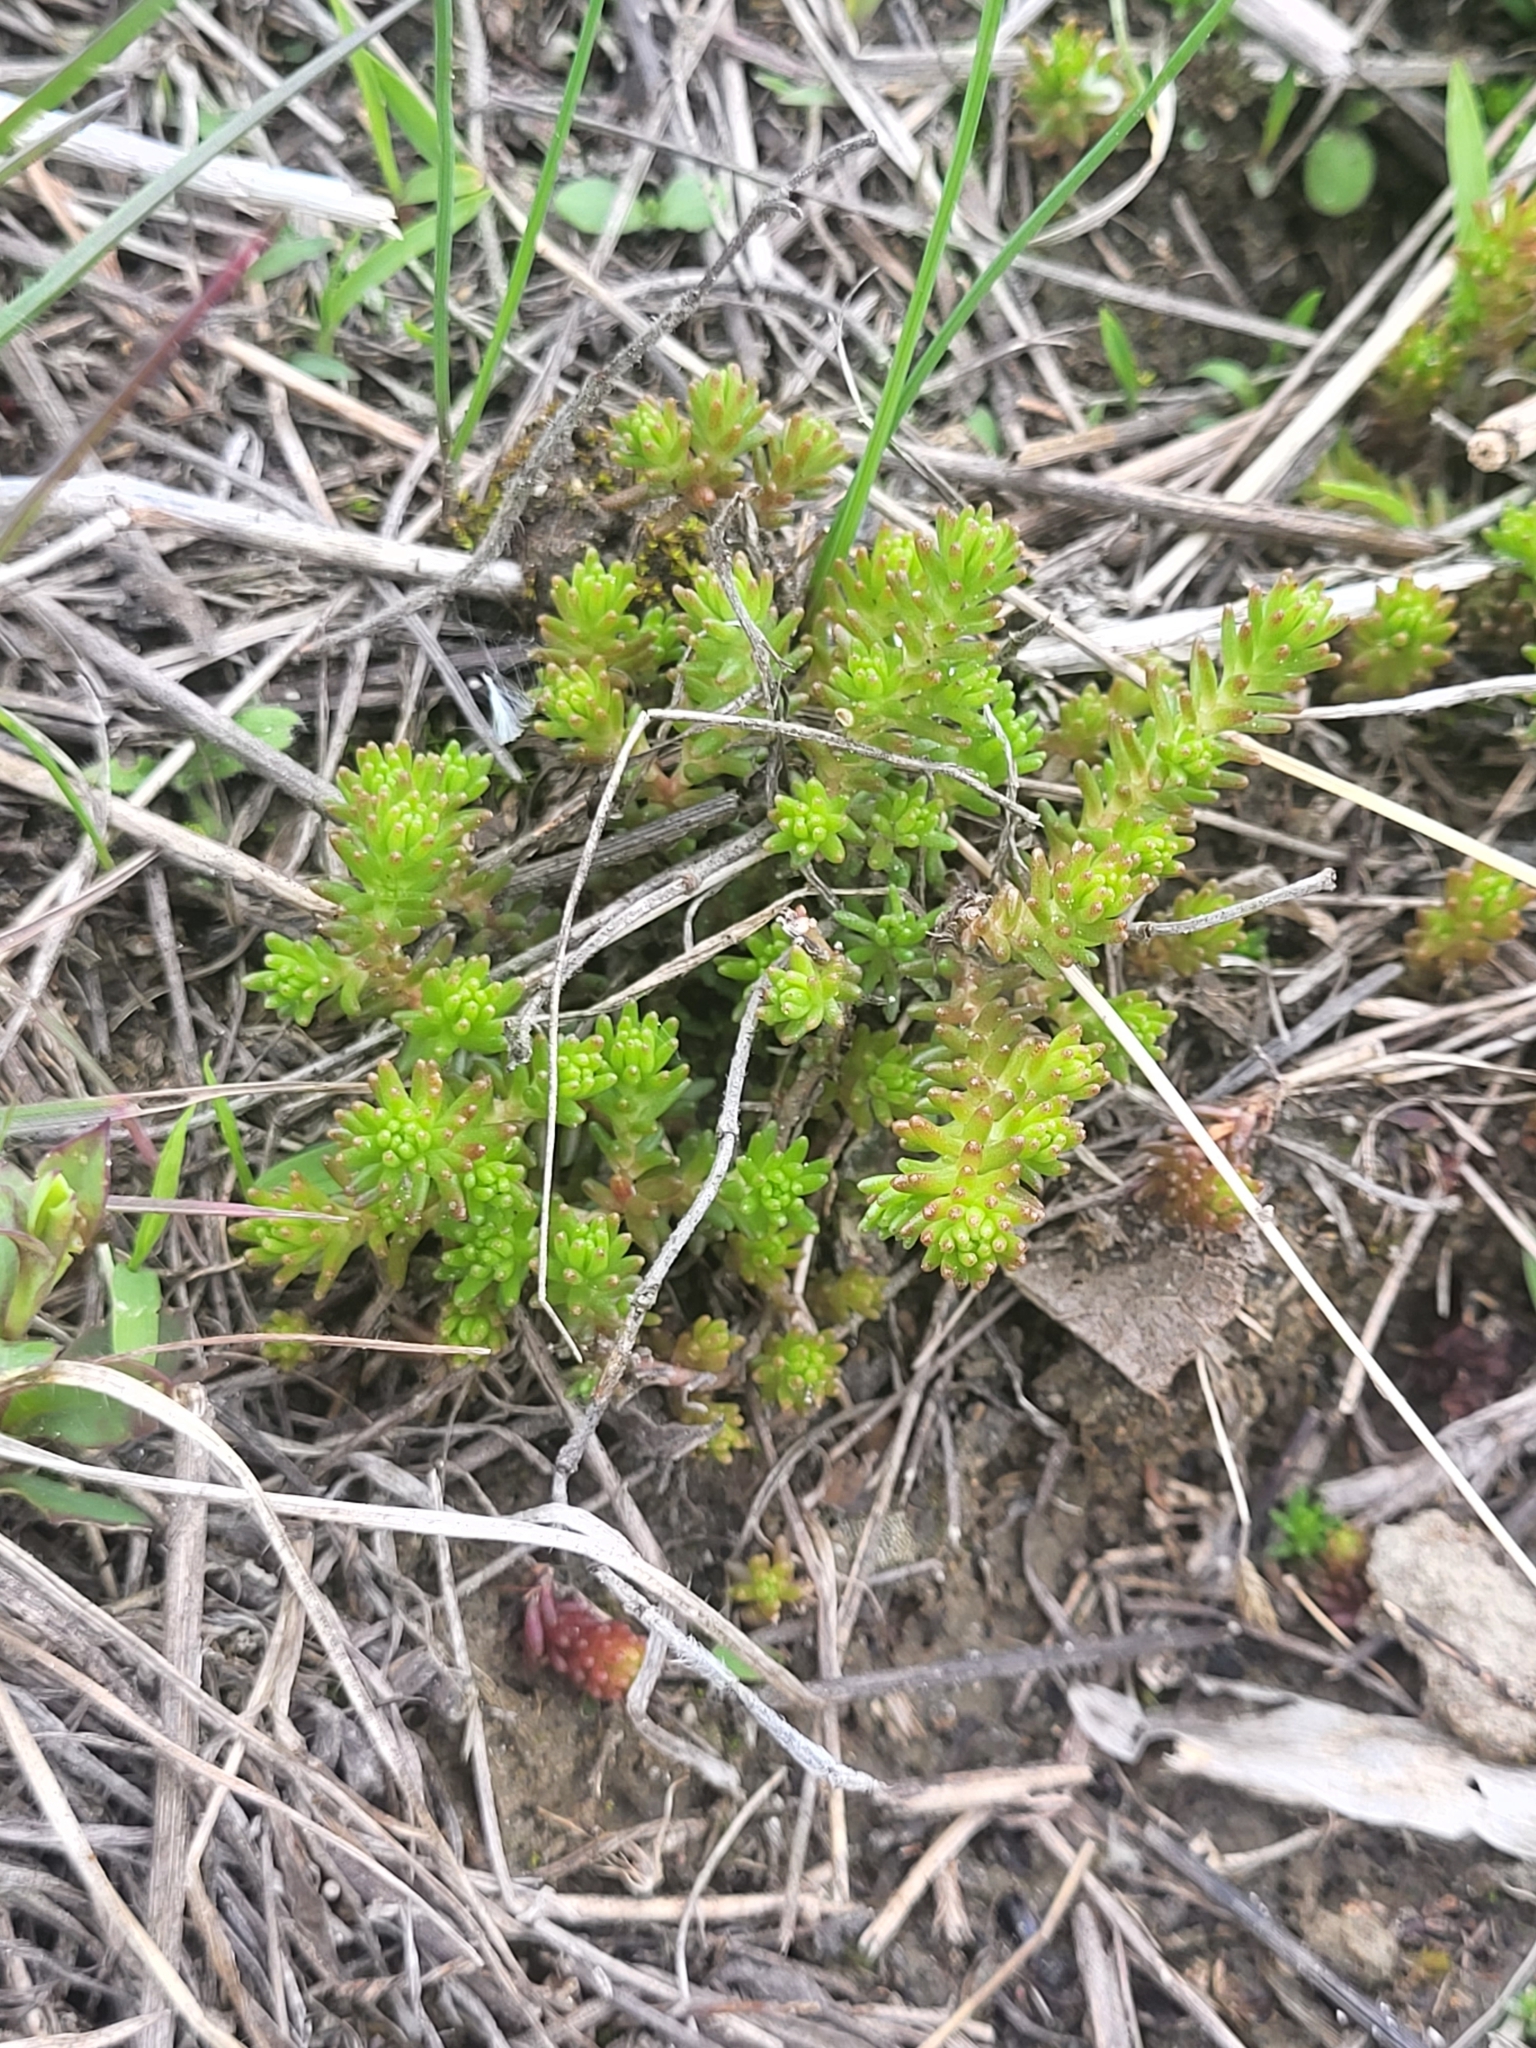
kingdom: Plantae
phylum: Tracheophyta
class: Magnoliopsida
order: Saxifragales
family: Crassulaceae
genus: Sedum
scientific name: Sedum sexangulare
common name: Tasteless stonecrop
